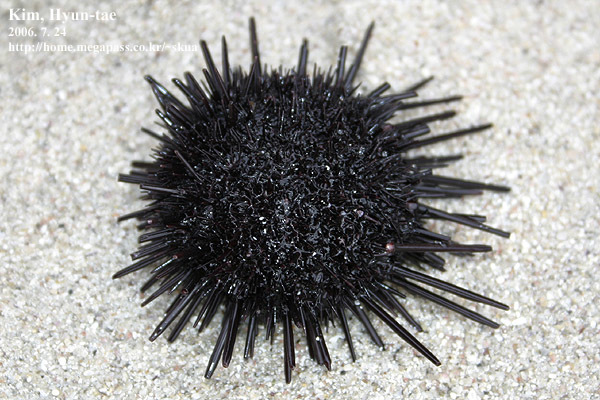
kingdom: Animalia
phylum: Echinodermata
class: Echinoidea
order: Camarodonta
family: Echinometridae
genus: Heliocidaris
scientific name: Heliocidaris crassispina
